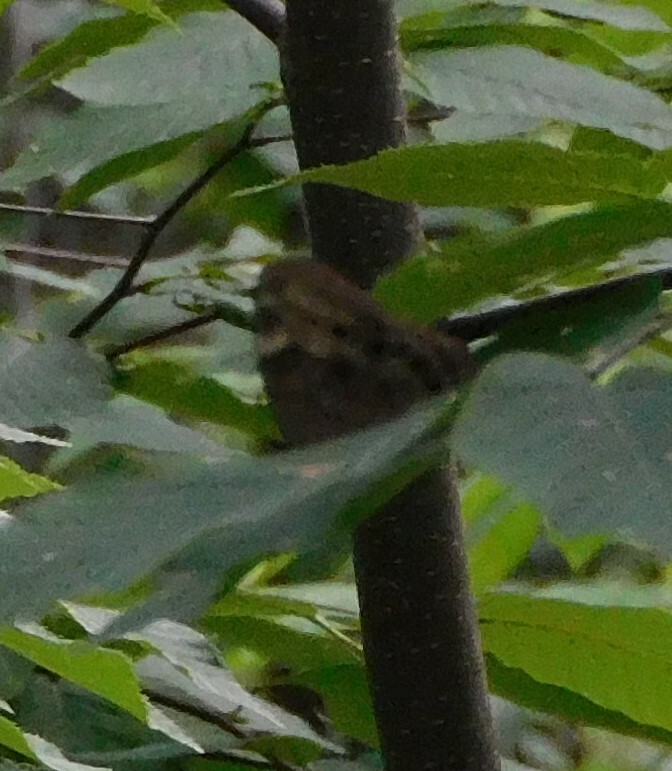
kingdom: Animalia
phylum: Arthropoda
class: Insecta
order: Lepidoptera
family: Nymphalidae
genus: Lethe
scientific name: Lethe anthedon
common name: Northern pearly-eye
